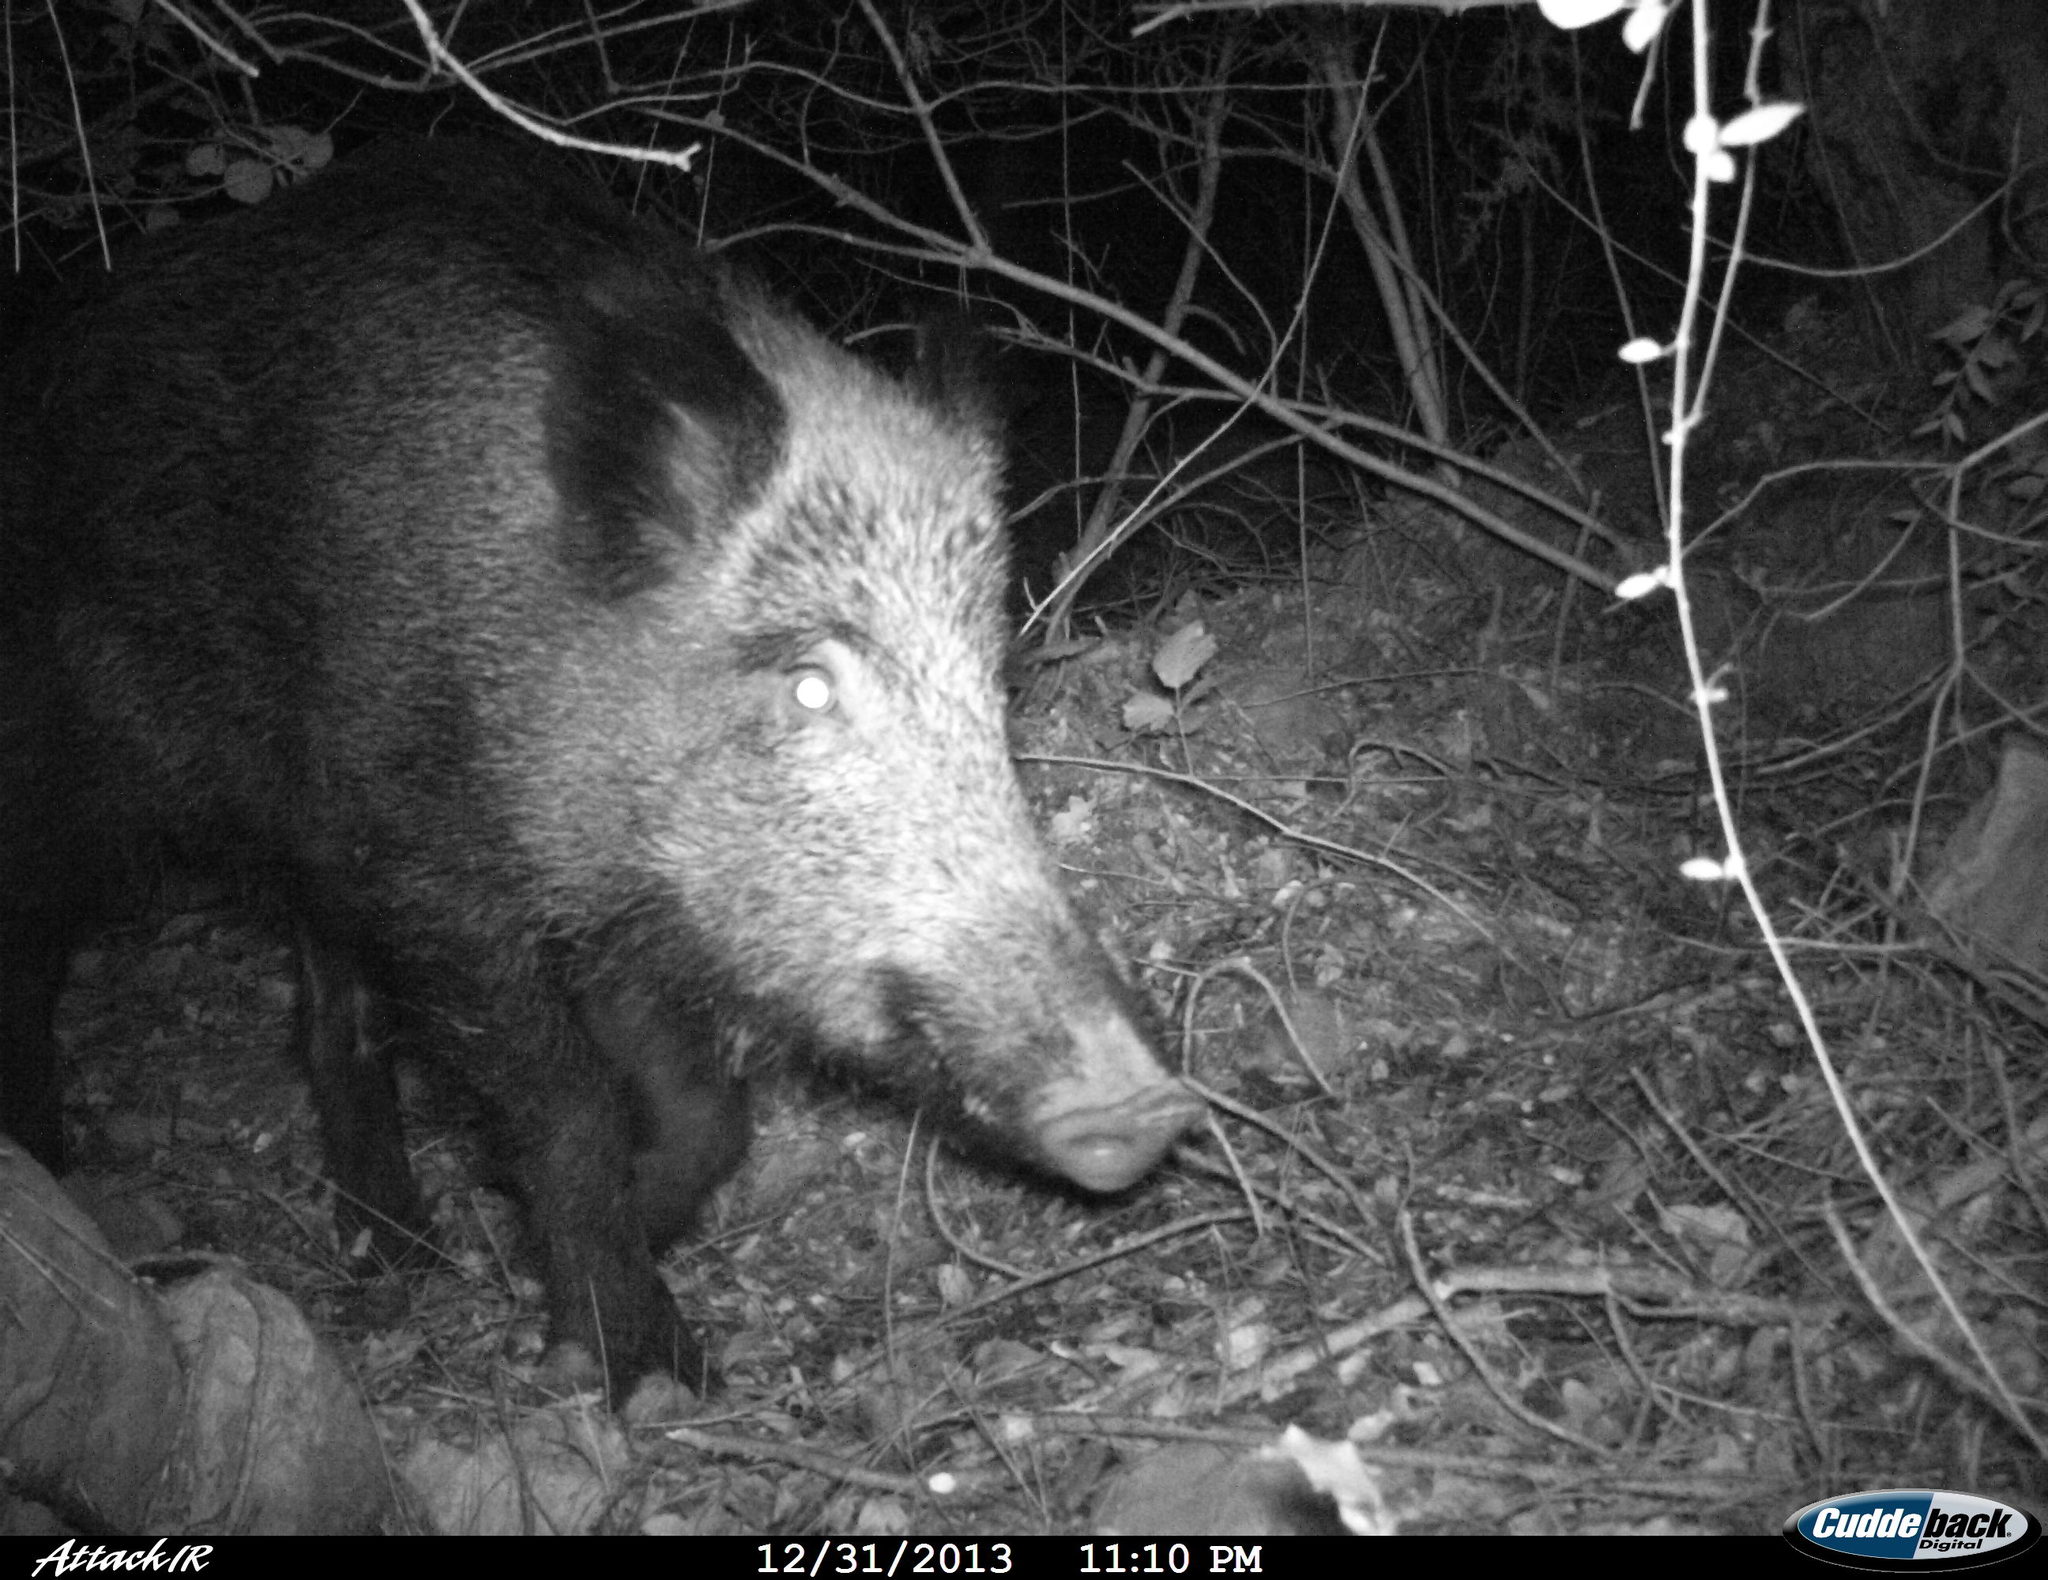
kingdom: Animalia
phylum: Chordata
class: Mammalia
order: Artiodactyla
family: Suidae
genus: Sus
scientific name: Sus scrofa
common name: Wild boar
